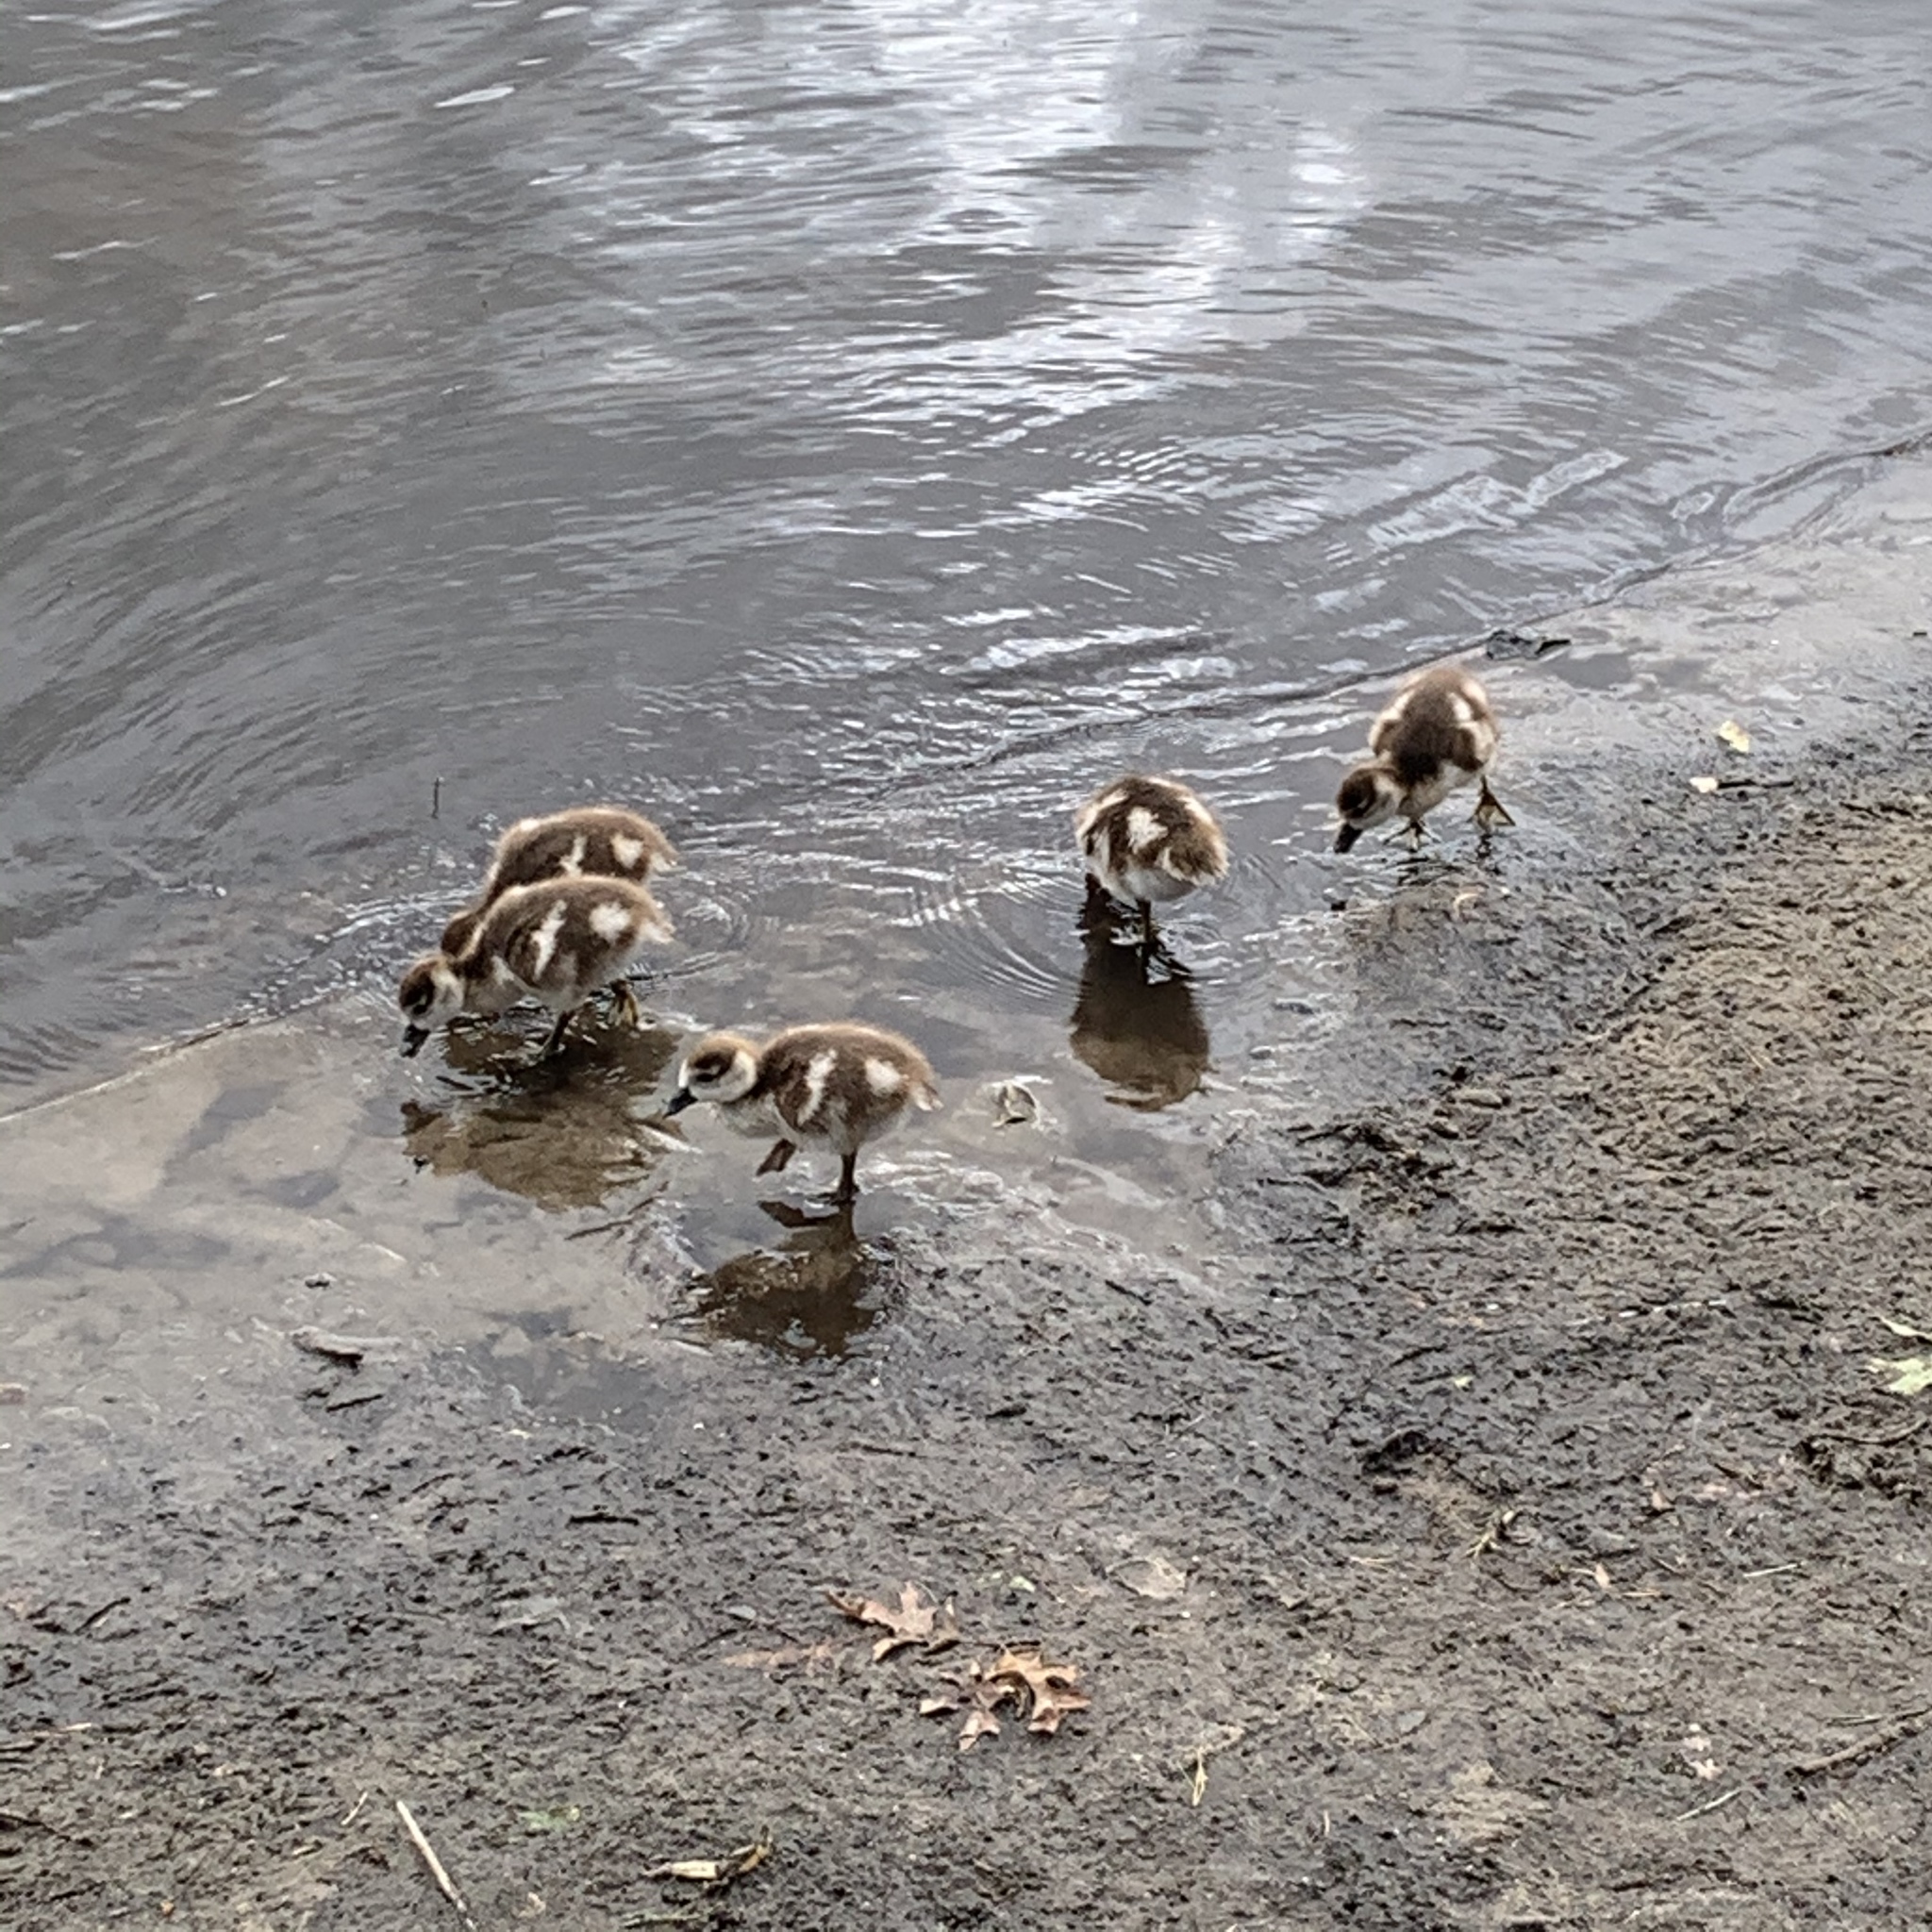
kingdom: Animalia
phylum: Chordata
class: Aves
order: Anseriformes
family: Anatidae
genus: Alopochen
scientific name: Alopochen aegyptiaca
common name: Egyptian goose
